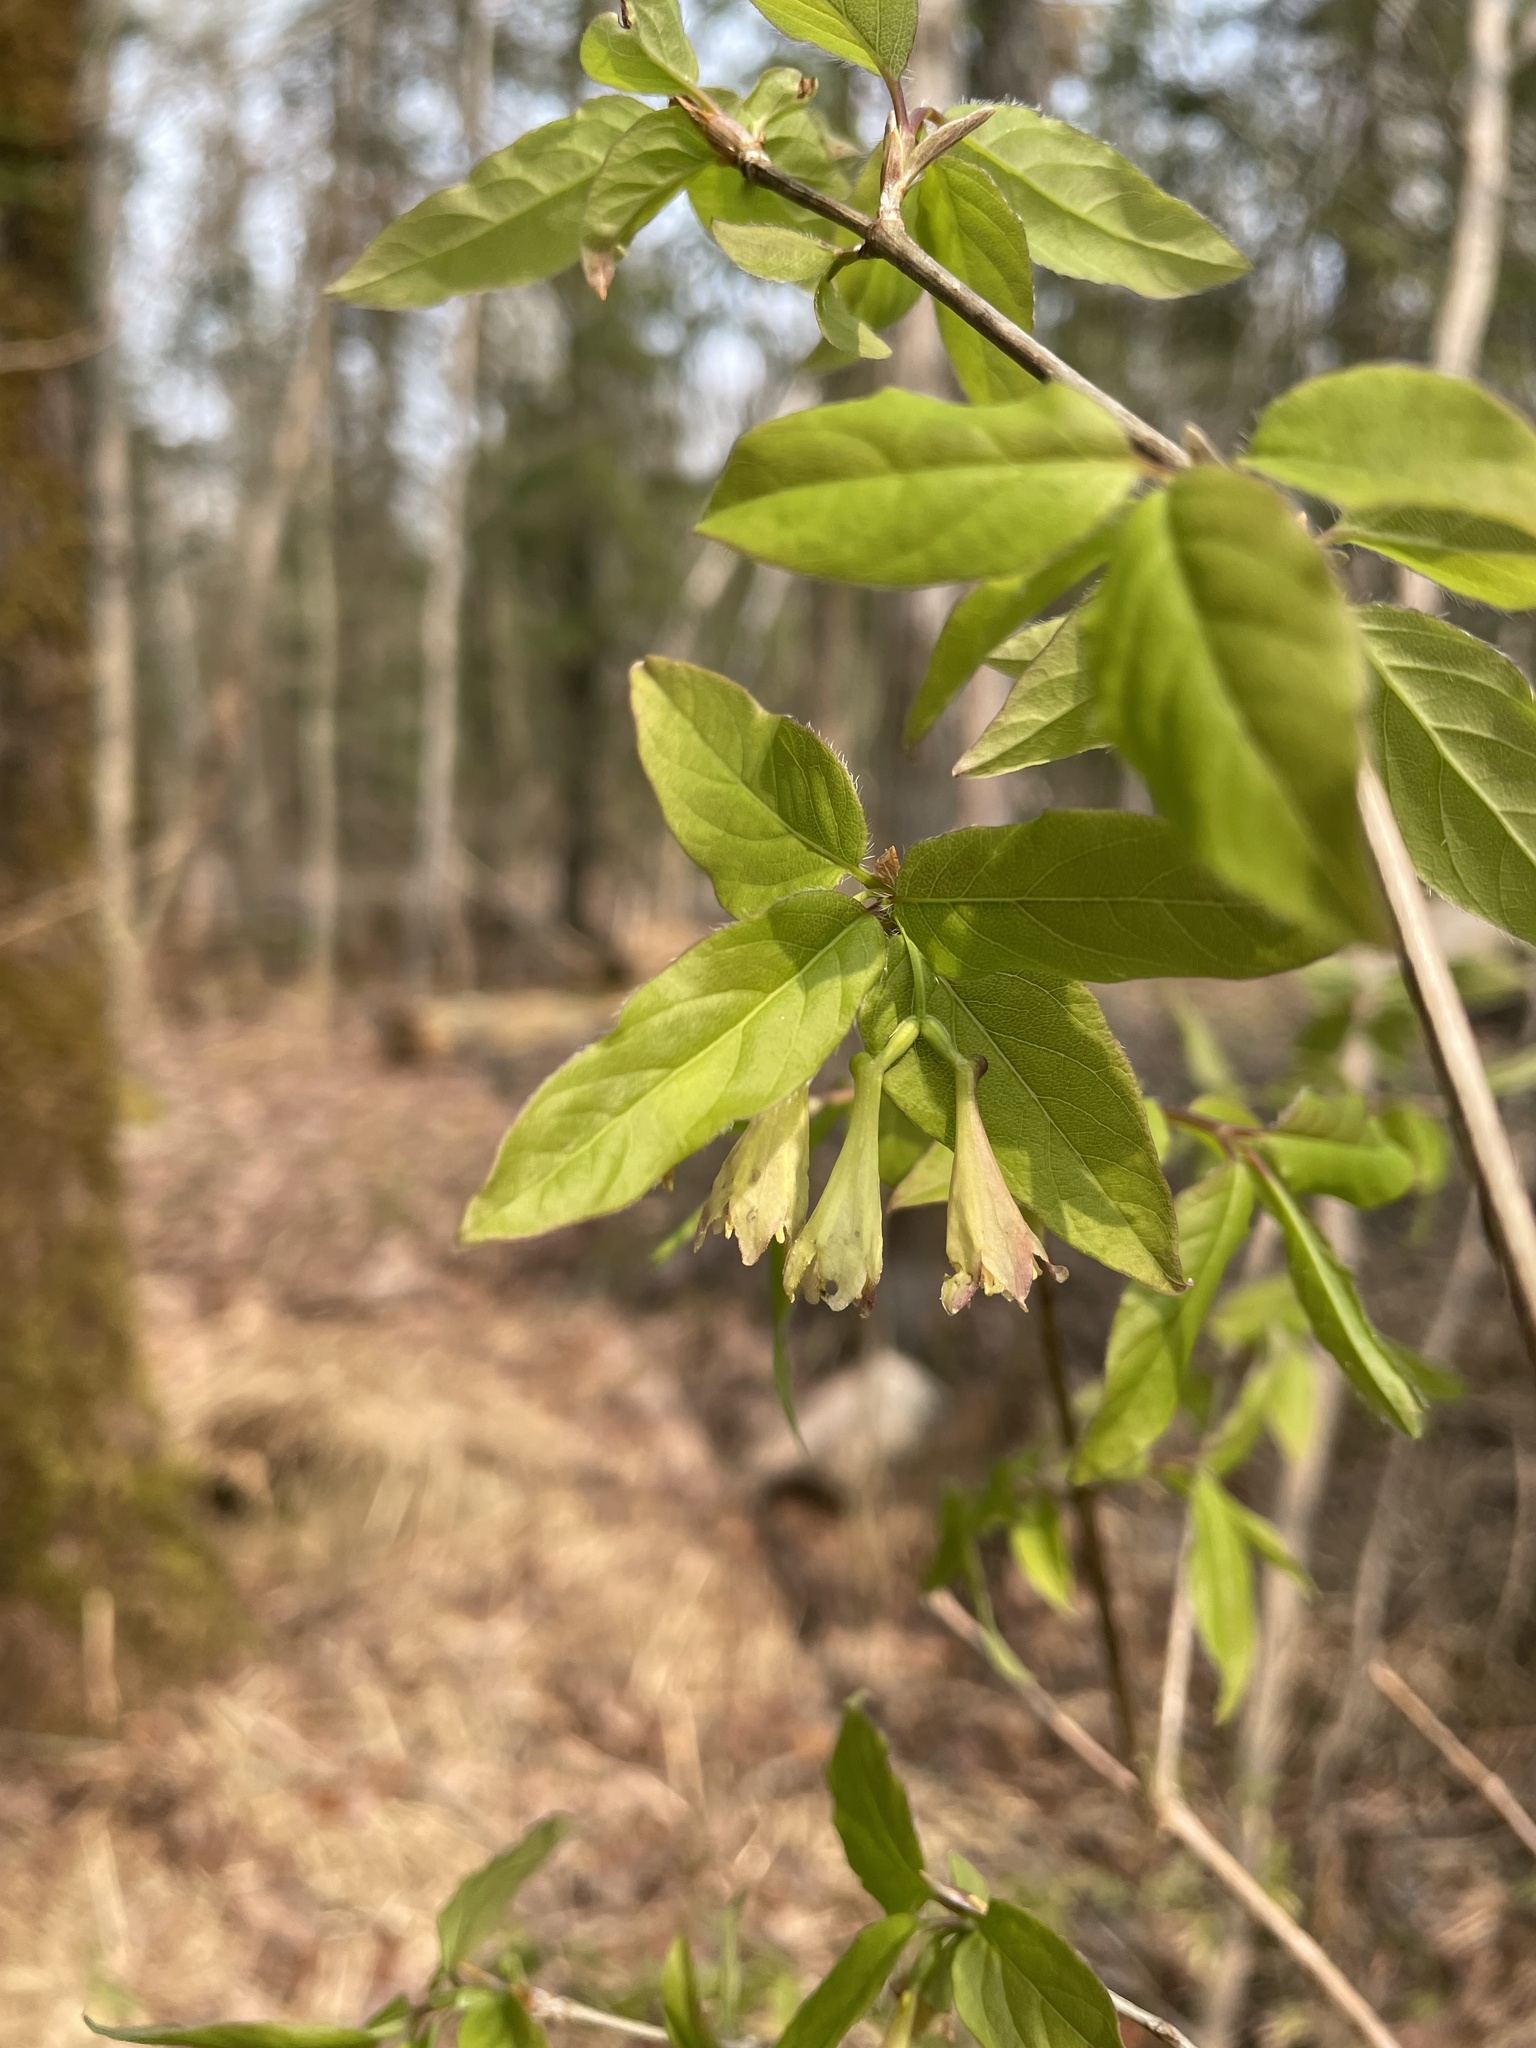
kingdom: Plantae
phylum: Tracheophyta
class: Magnoliopsida
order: Dipsacales
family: Caprifoliaceae
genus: Lonicera
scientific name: Lonicera canadensis
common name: American fly-honeysuckle
